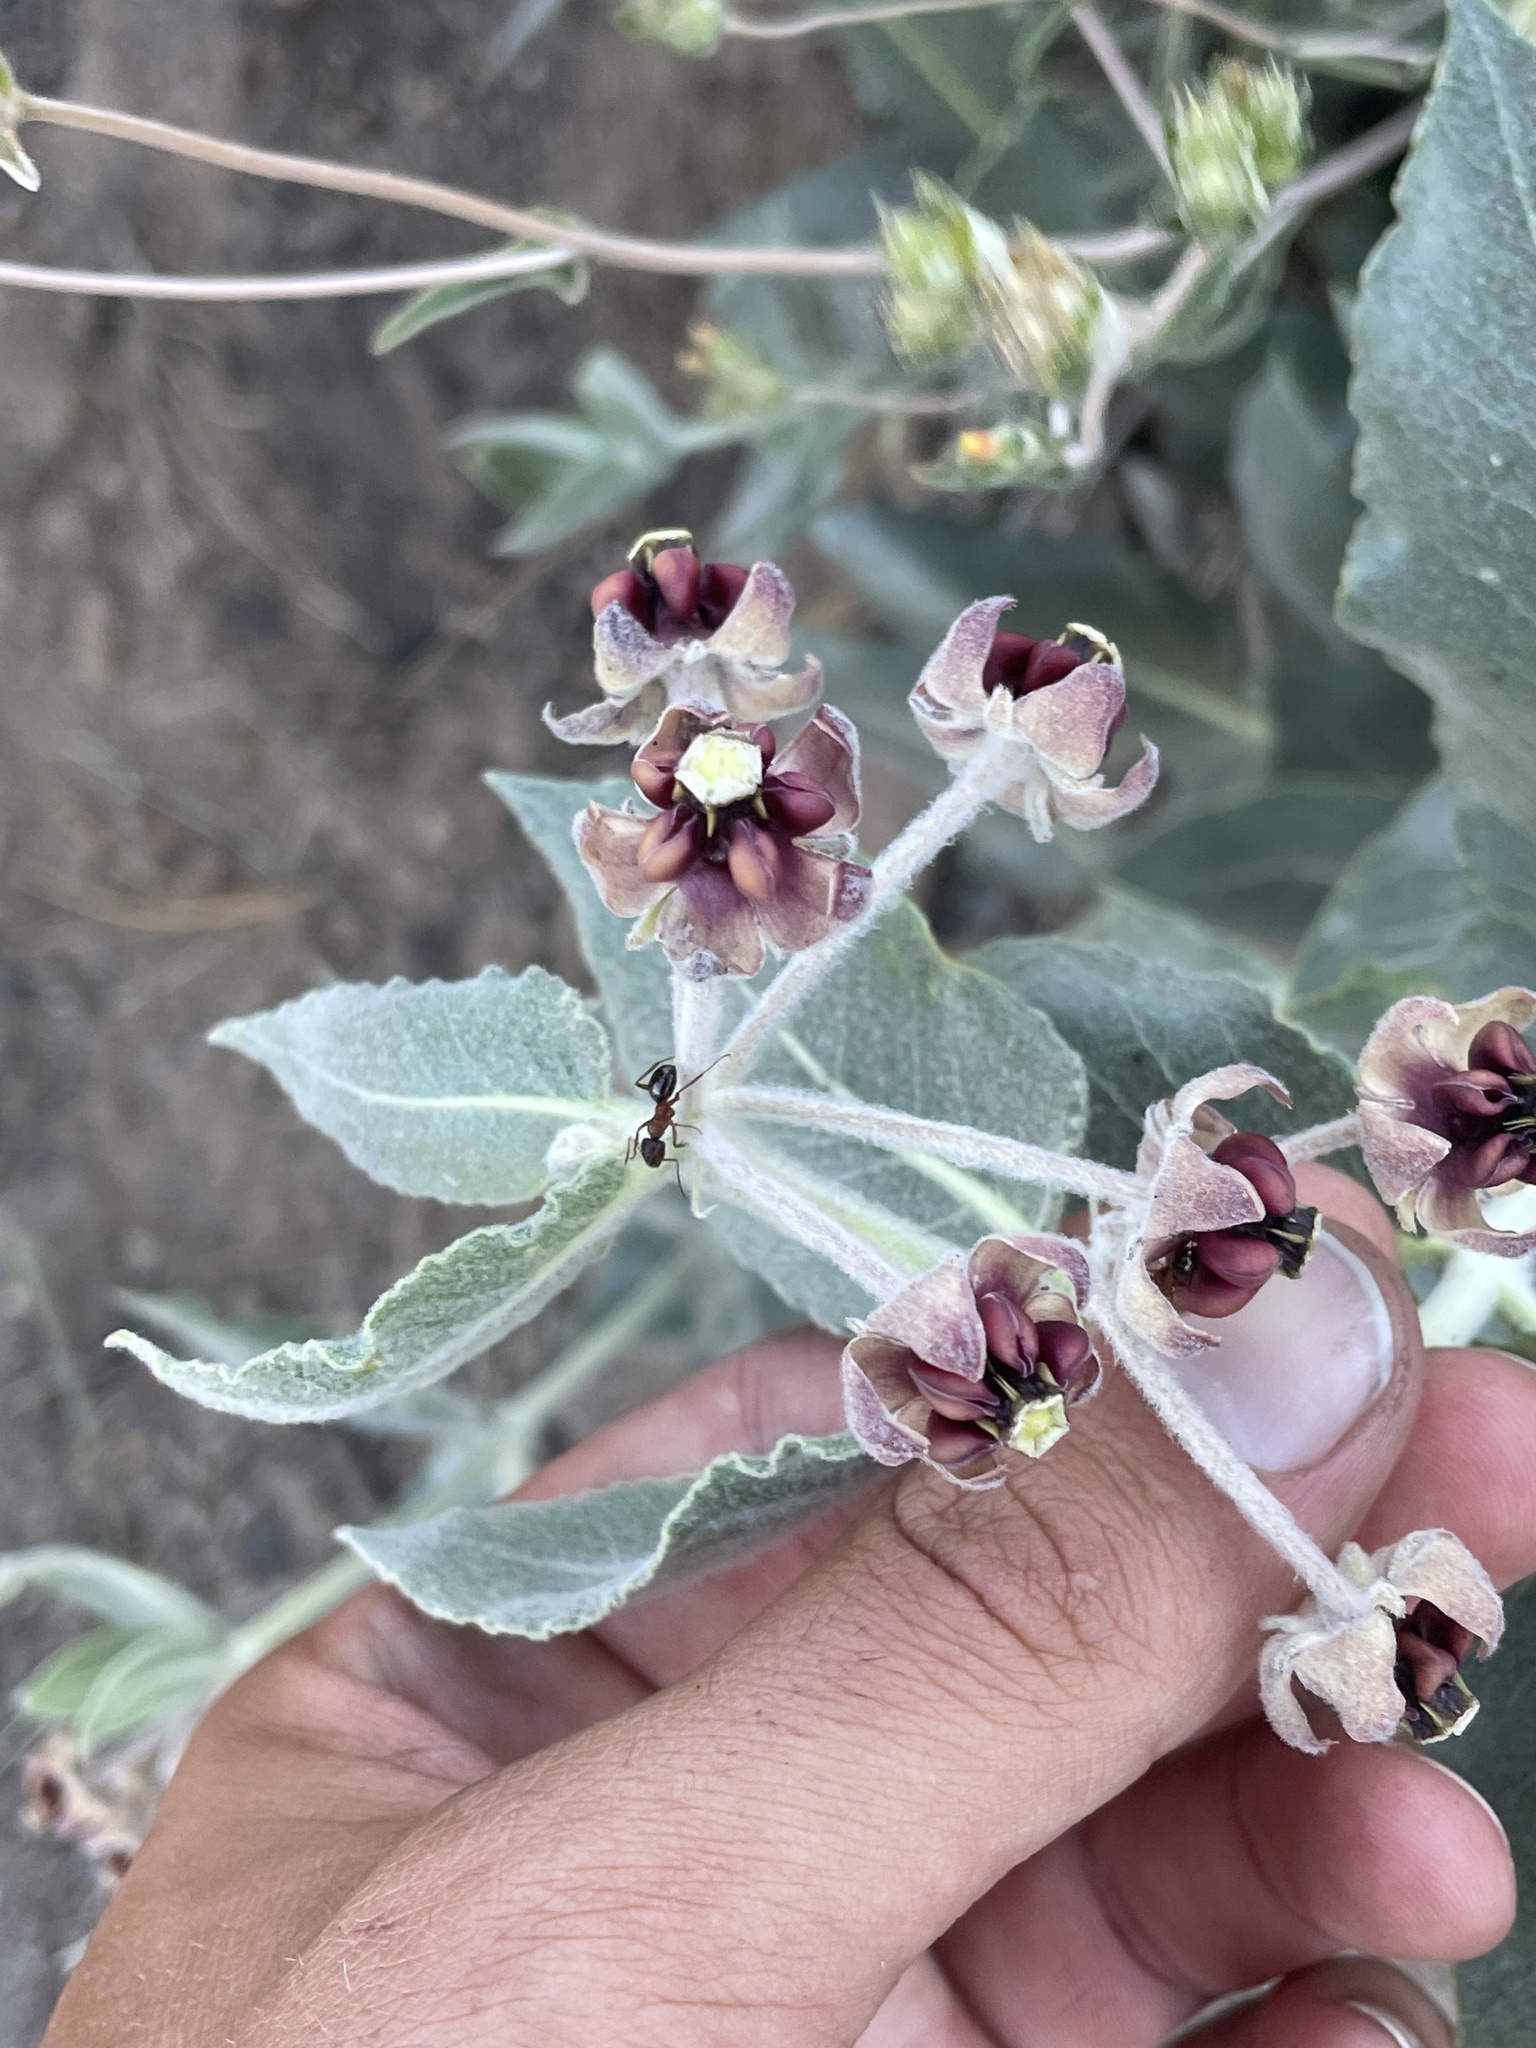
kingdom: Plantae
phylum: Tracheophyta
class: Magnoliopsida
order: Gentianales
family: Apocynaceae
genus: Asclepias
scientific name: Asclepias californica
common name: California milkweed
